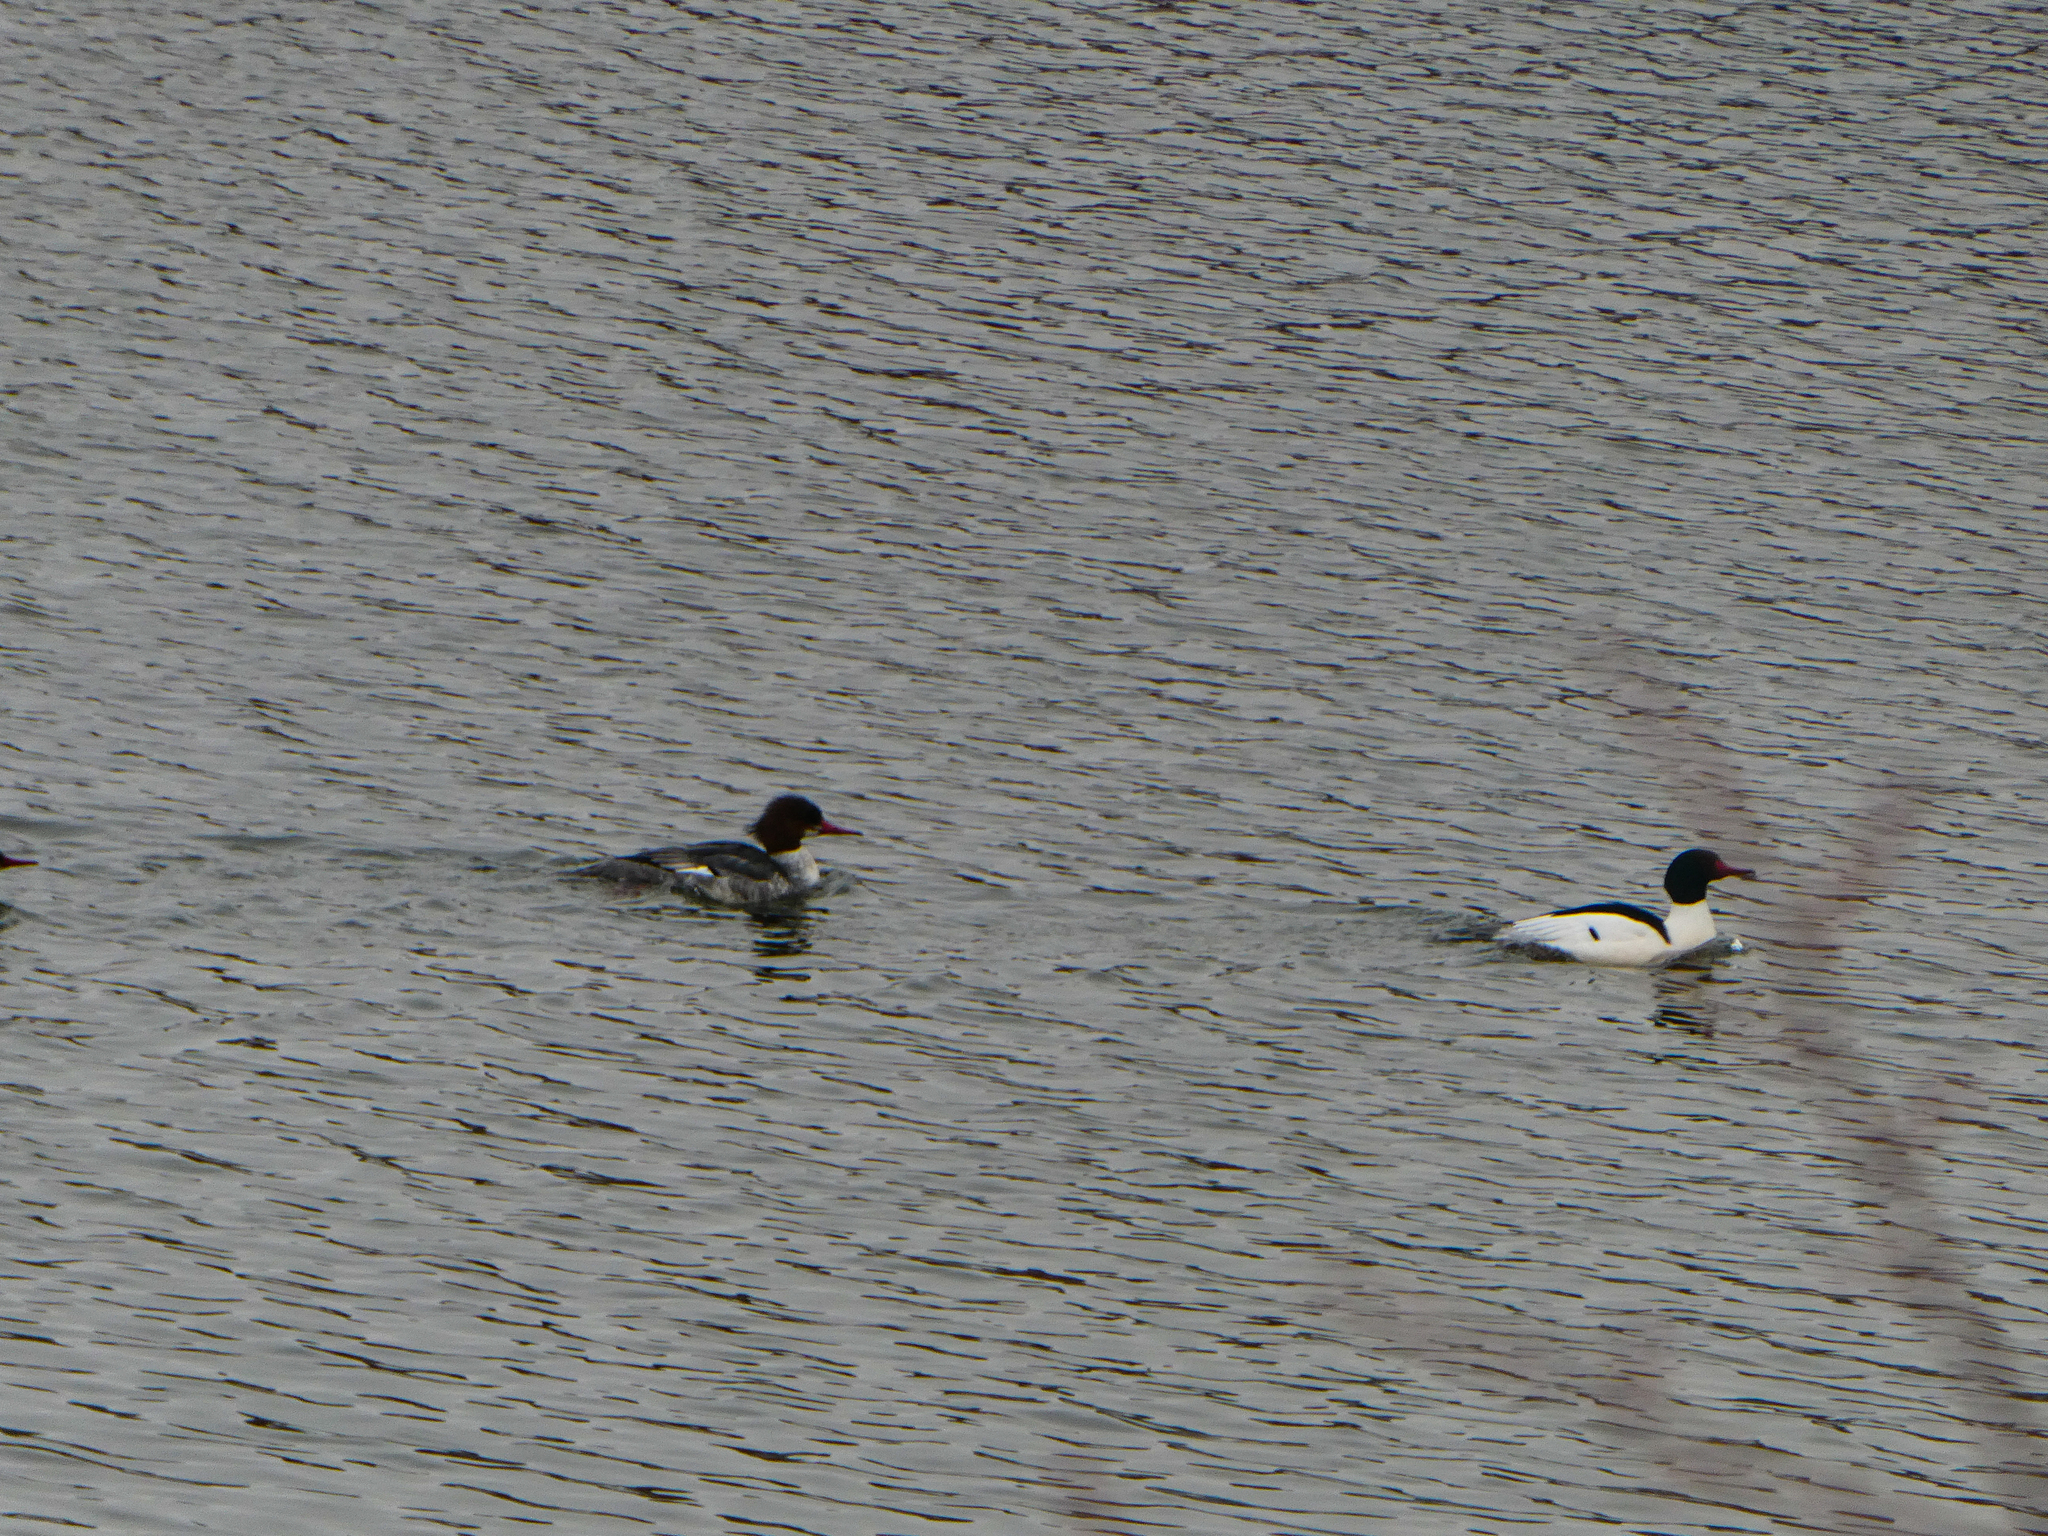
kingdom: Animalia
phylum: Chordata
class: Aves
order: Anseriformes
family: Anatidae
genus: Mergus
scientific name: Mergus merganser
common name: Common merganser
